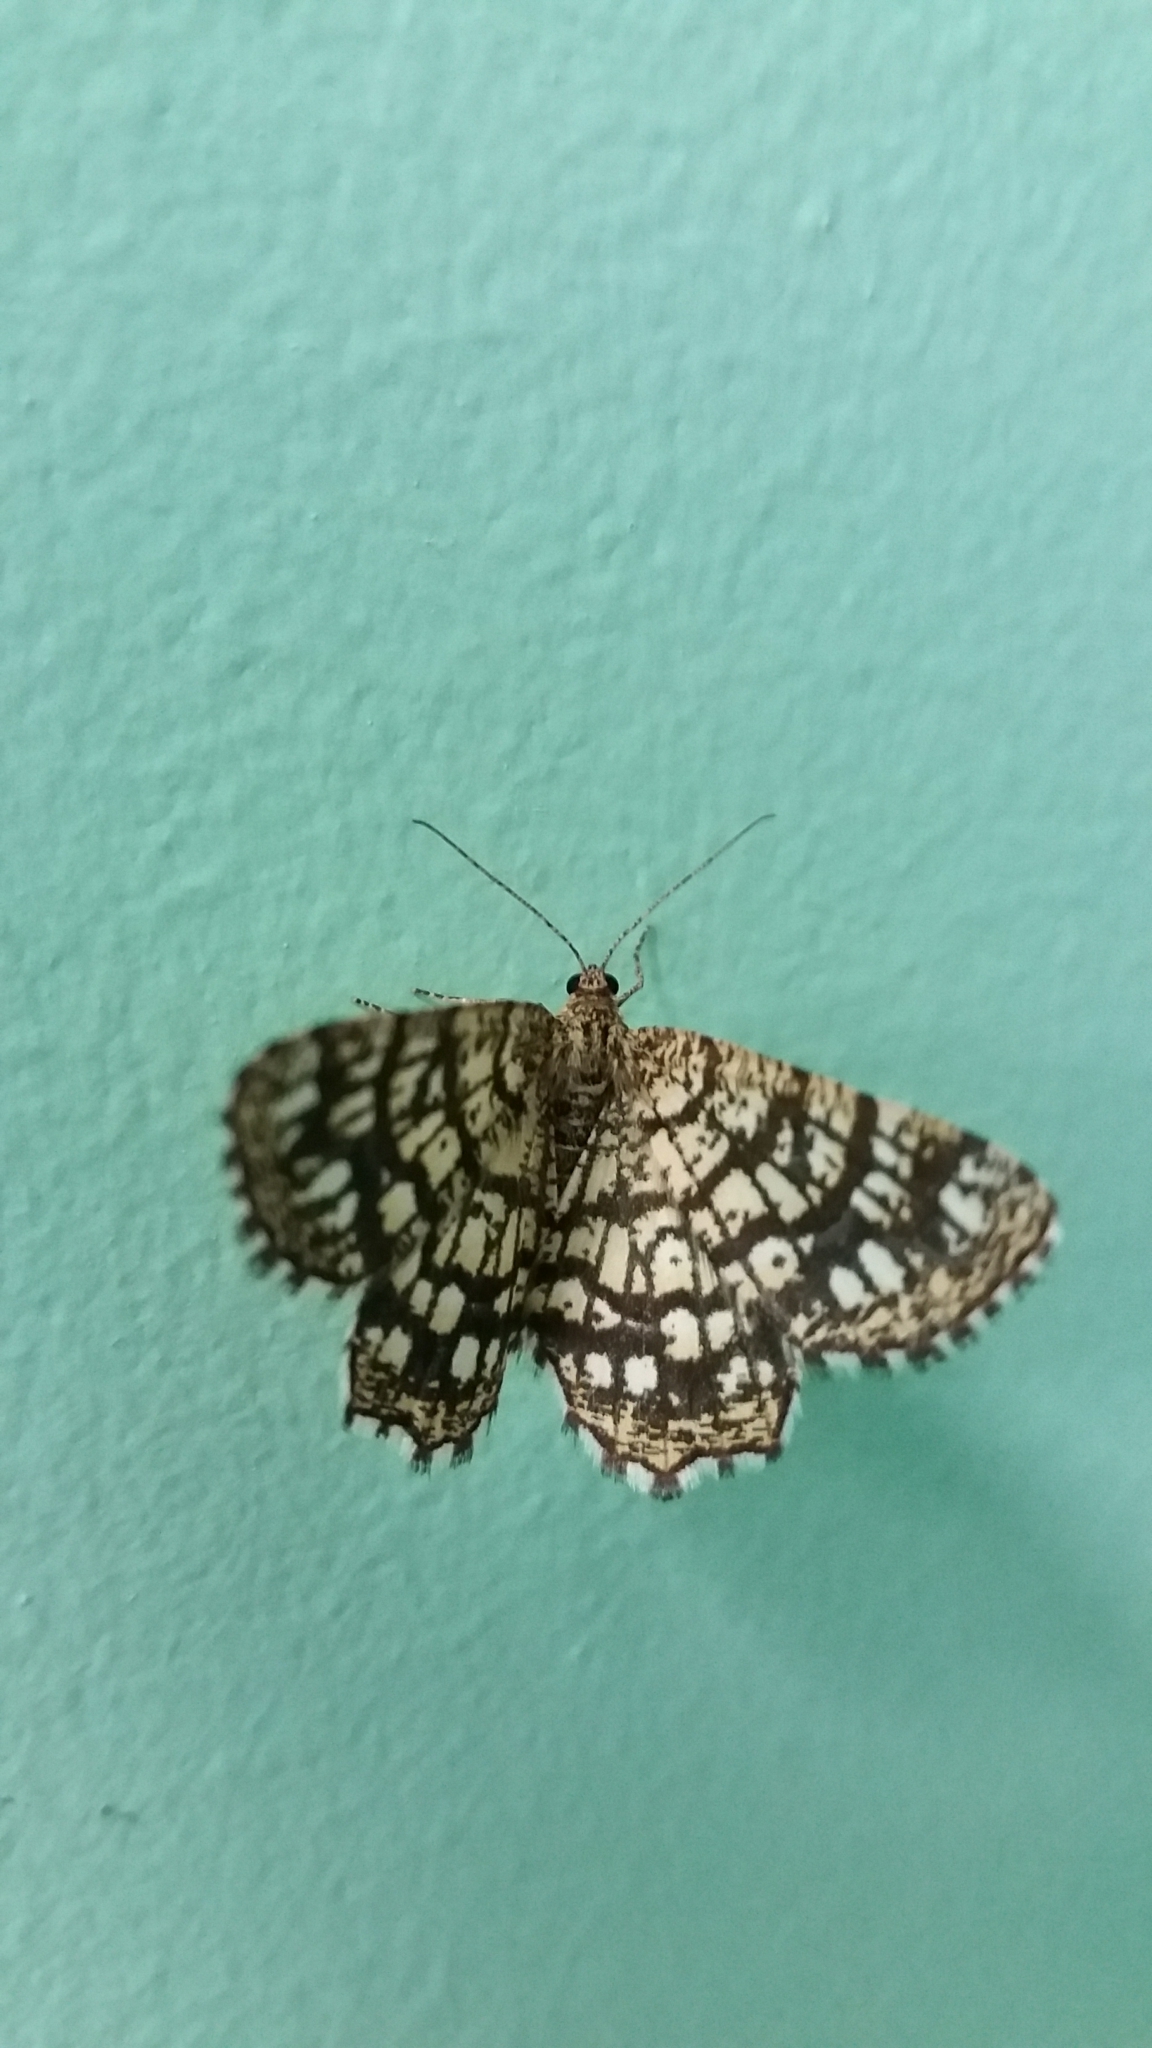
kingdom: Animalia
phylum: Arthropoda
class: Insecta
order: Lepidoptera
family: Geometridae
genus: Chiasmia
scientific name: Chiasmia clathrata
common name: Latticed heath
